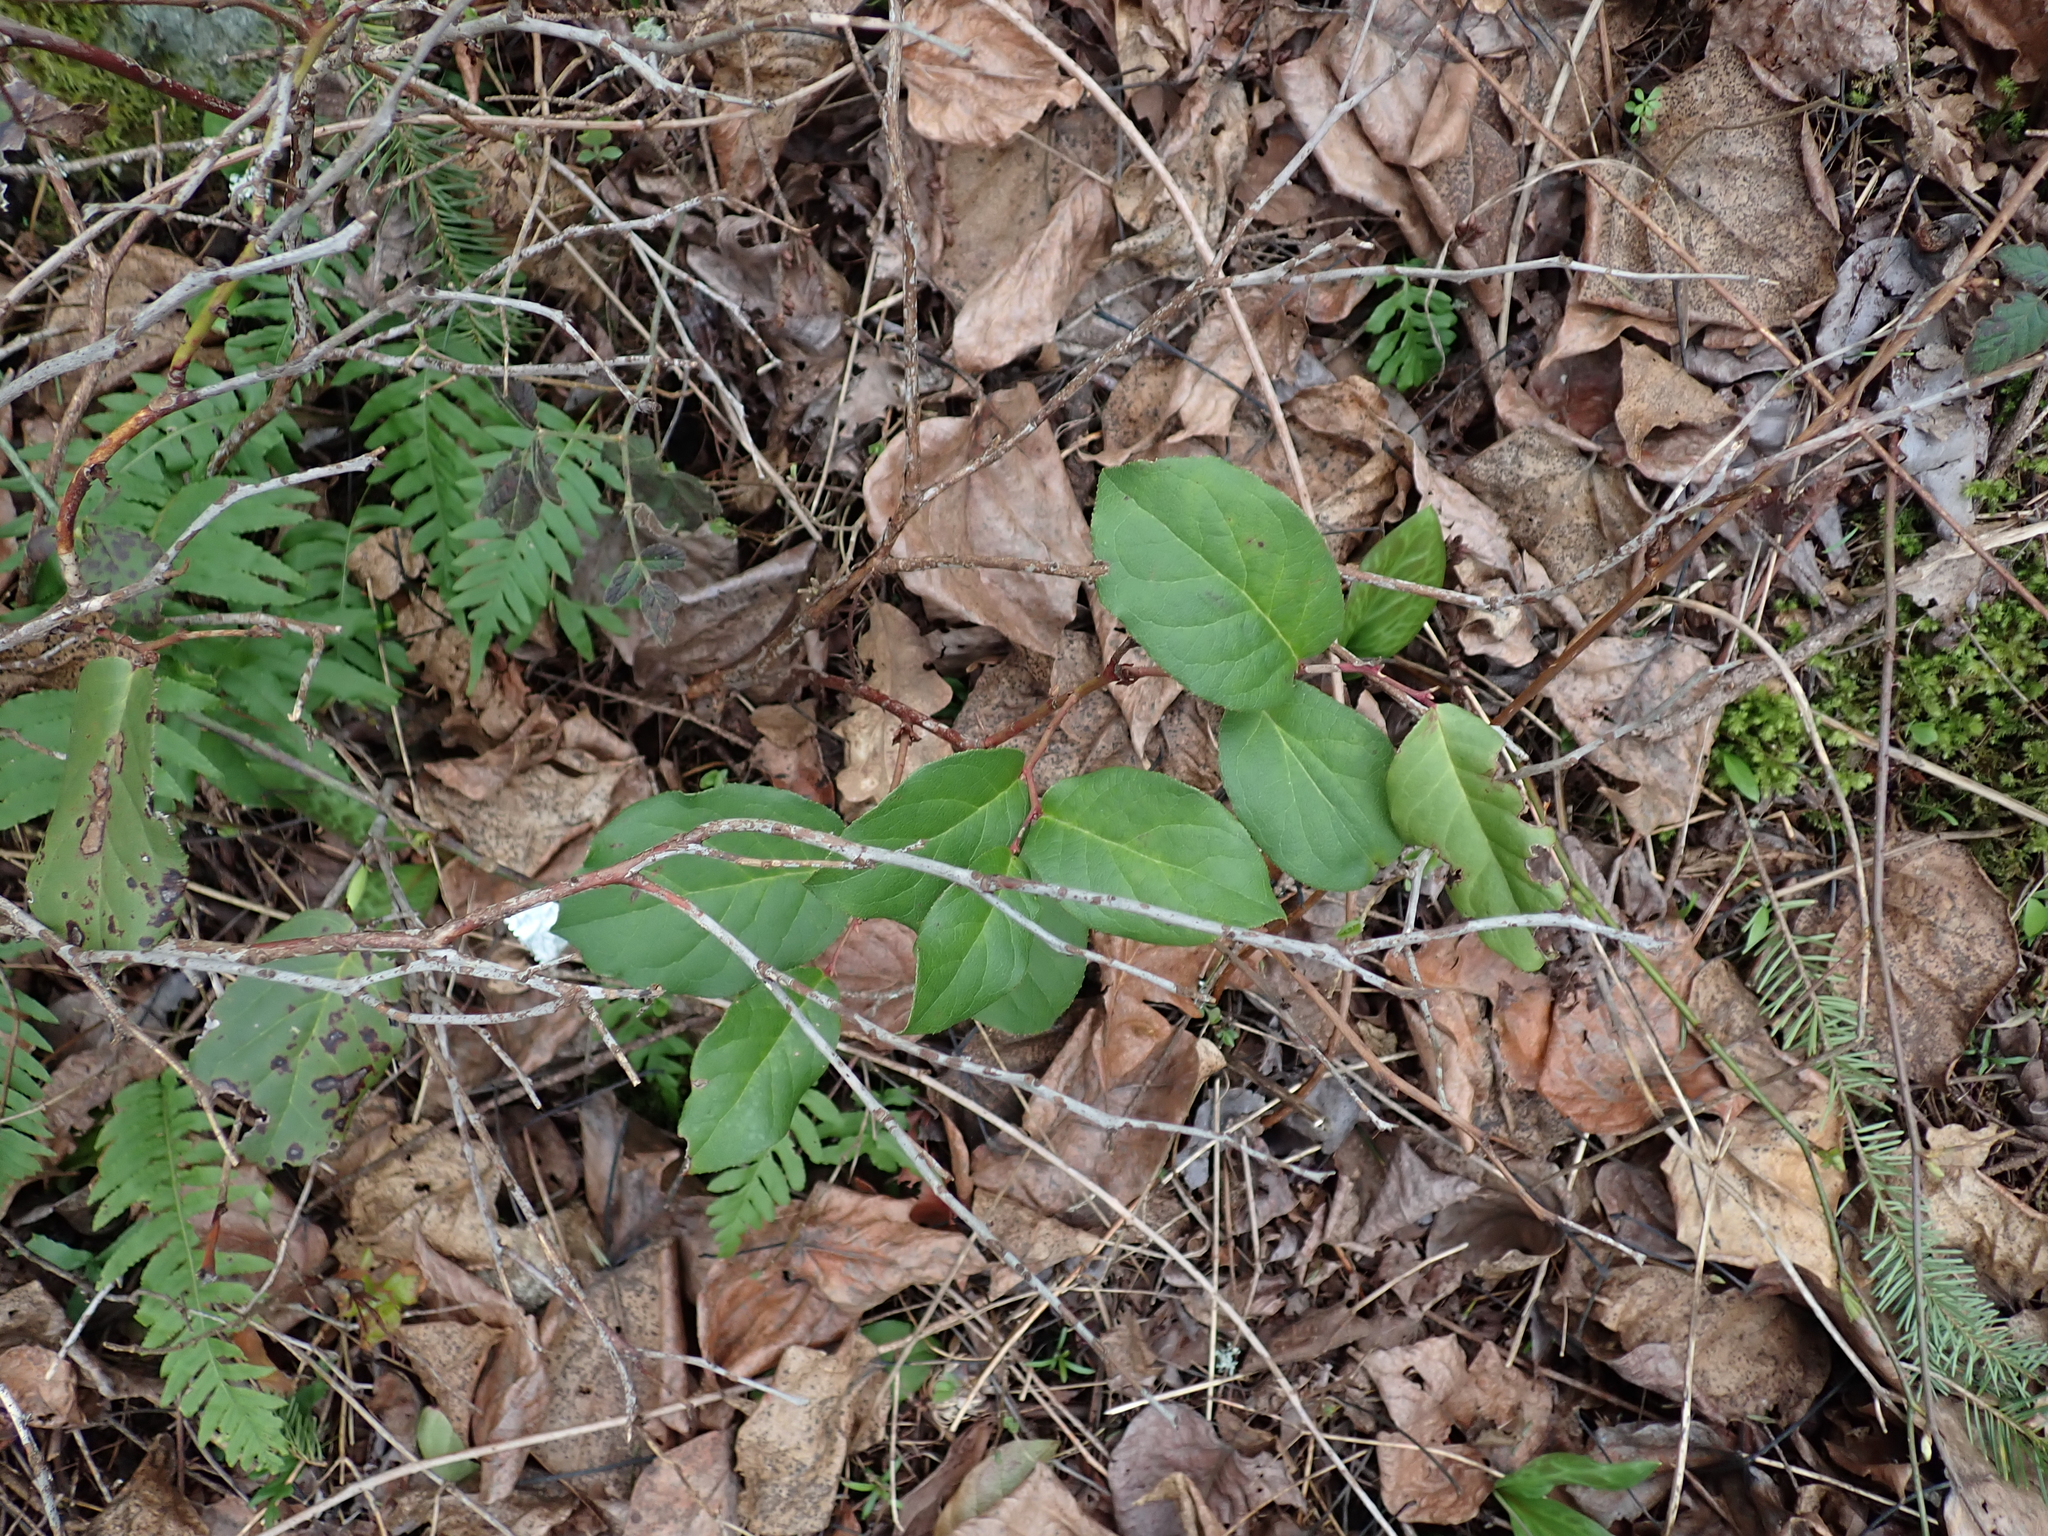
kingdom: Plantae
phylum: Tracheophyta
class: Magnoliopsida
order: Ericales
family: Ericaceae
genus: Gaultheria
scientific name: Gaultheria shallon
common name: Shallon
